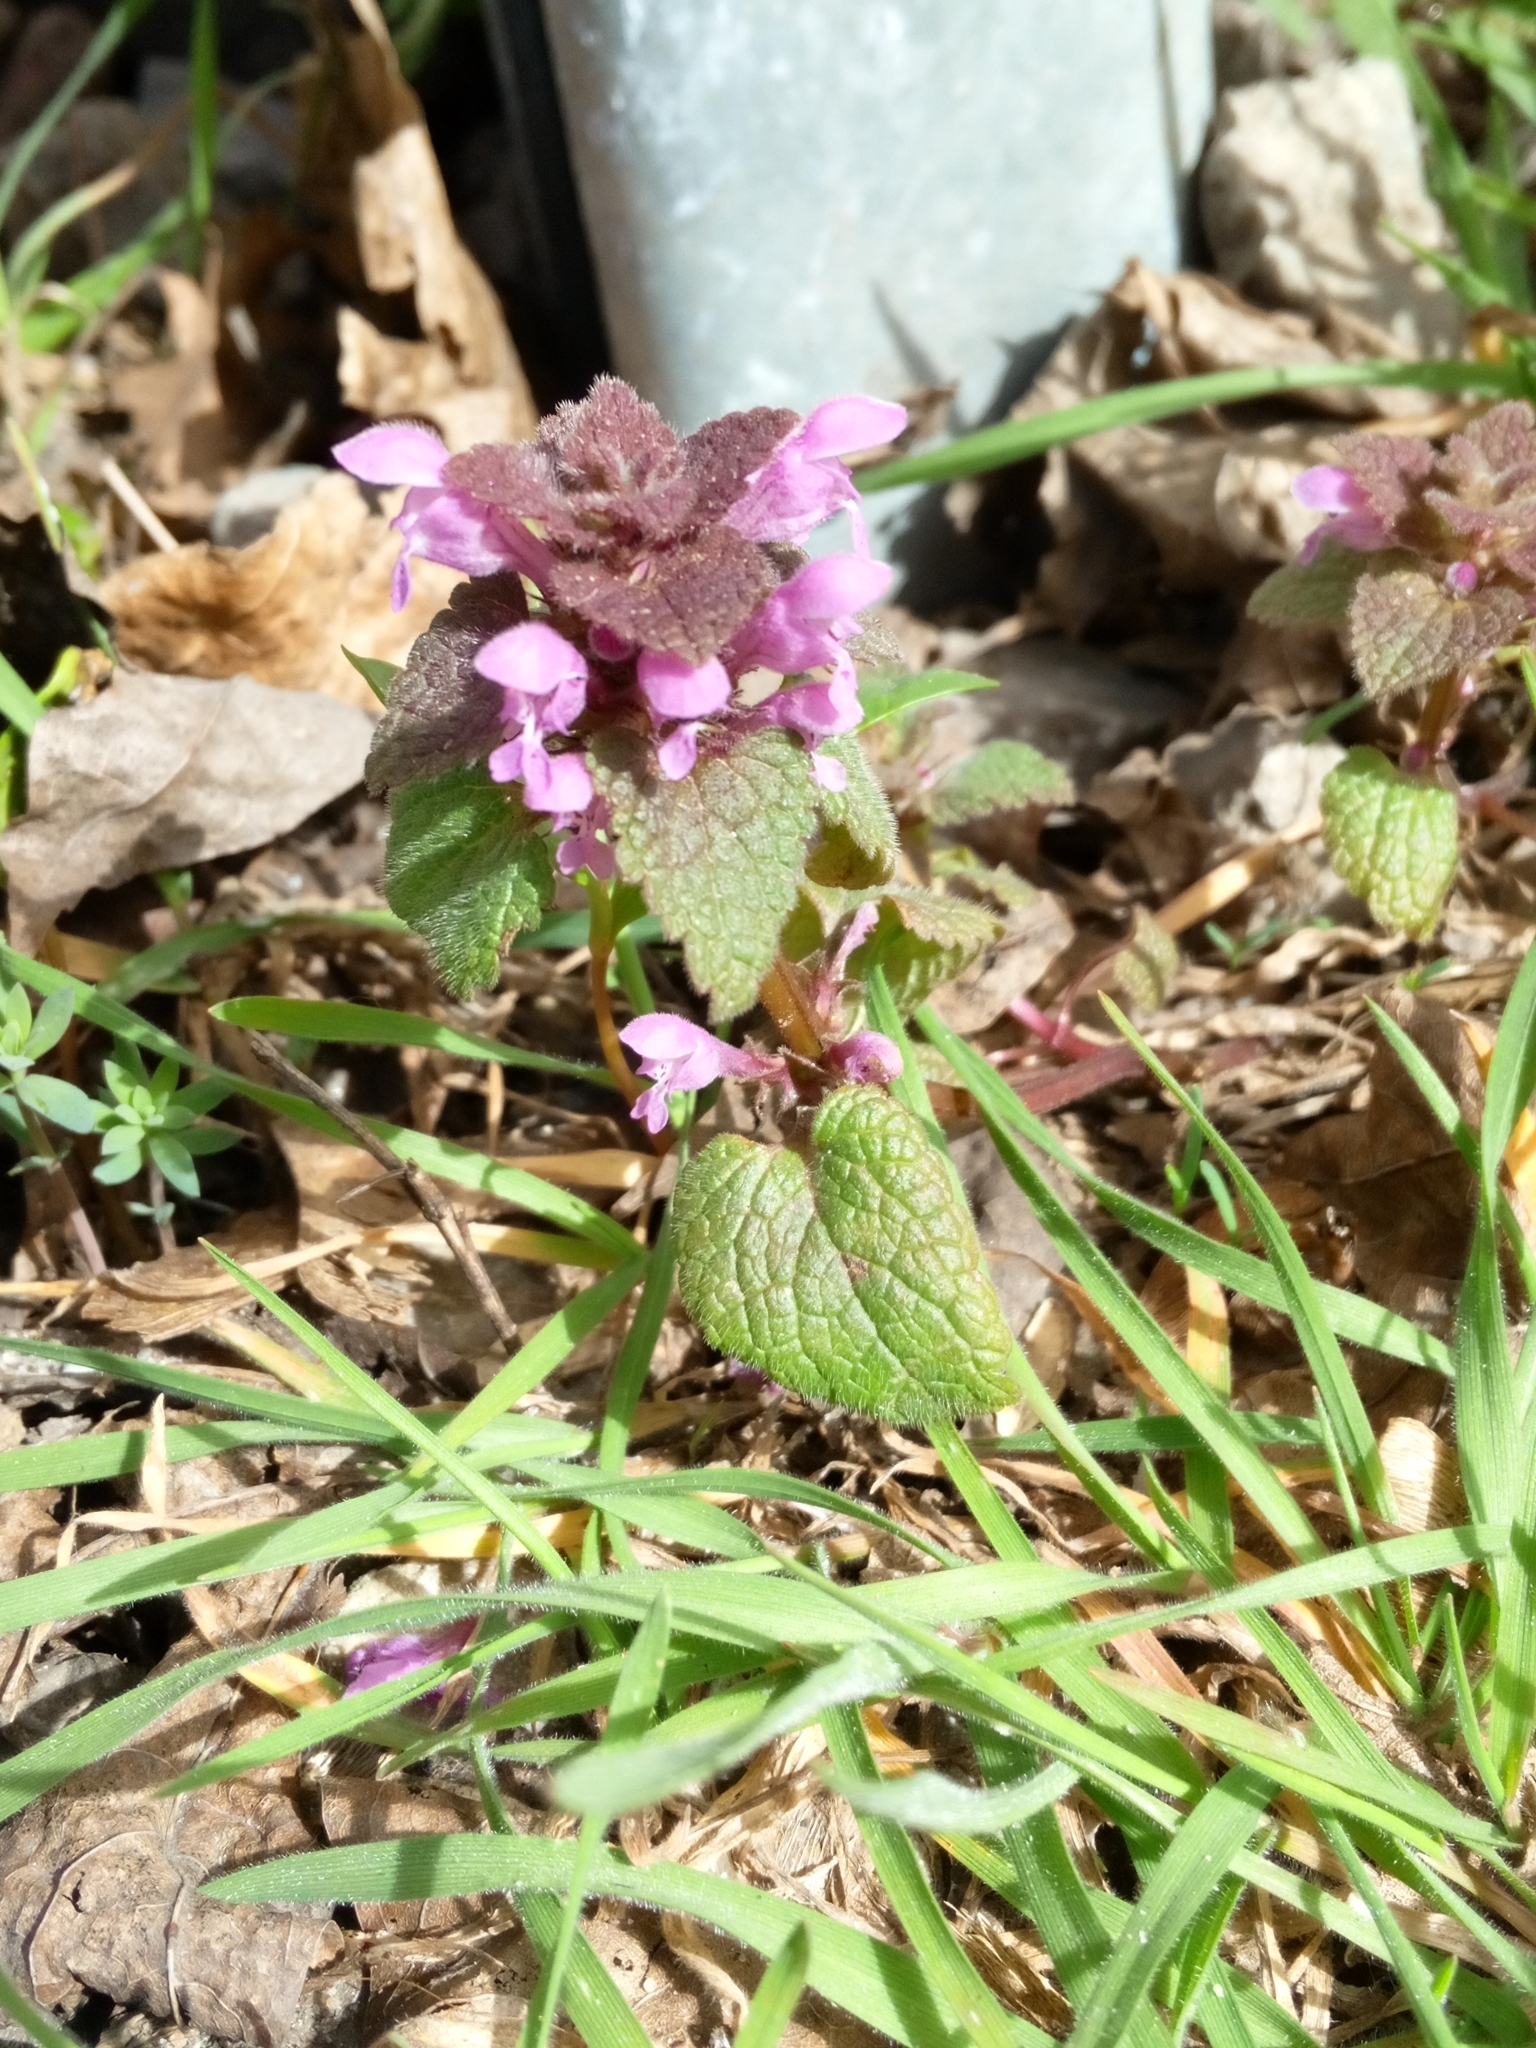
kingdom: Plantae
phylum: Tracheophyta
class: Magnoliopsida
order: Lamiales
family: Lamiaceae
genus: Lamium
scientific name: Lamium purpureum
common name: Red dead-nettle
